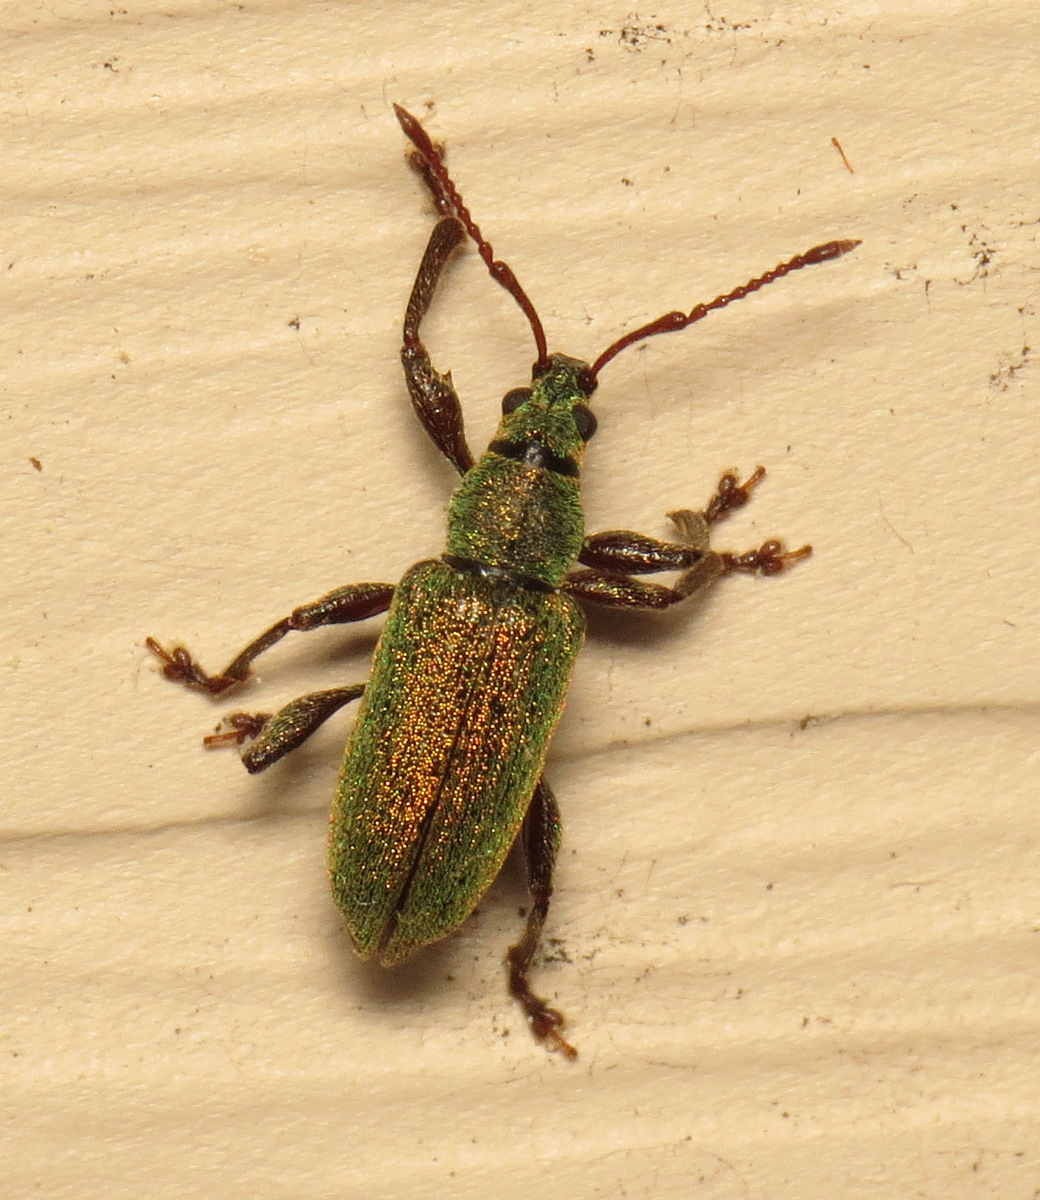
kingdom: Animalia
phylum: Arthropoda
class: Insecta
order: Coleoptera
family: Curculionidae
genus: Parascythopus
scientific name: Parascythopus intrusus
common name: Weevil
